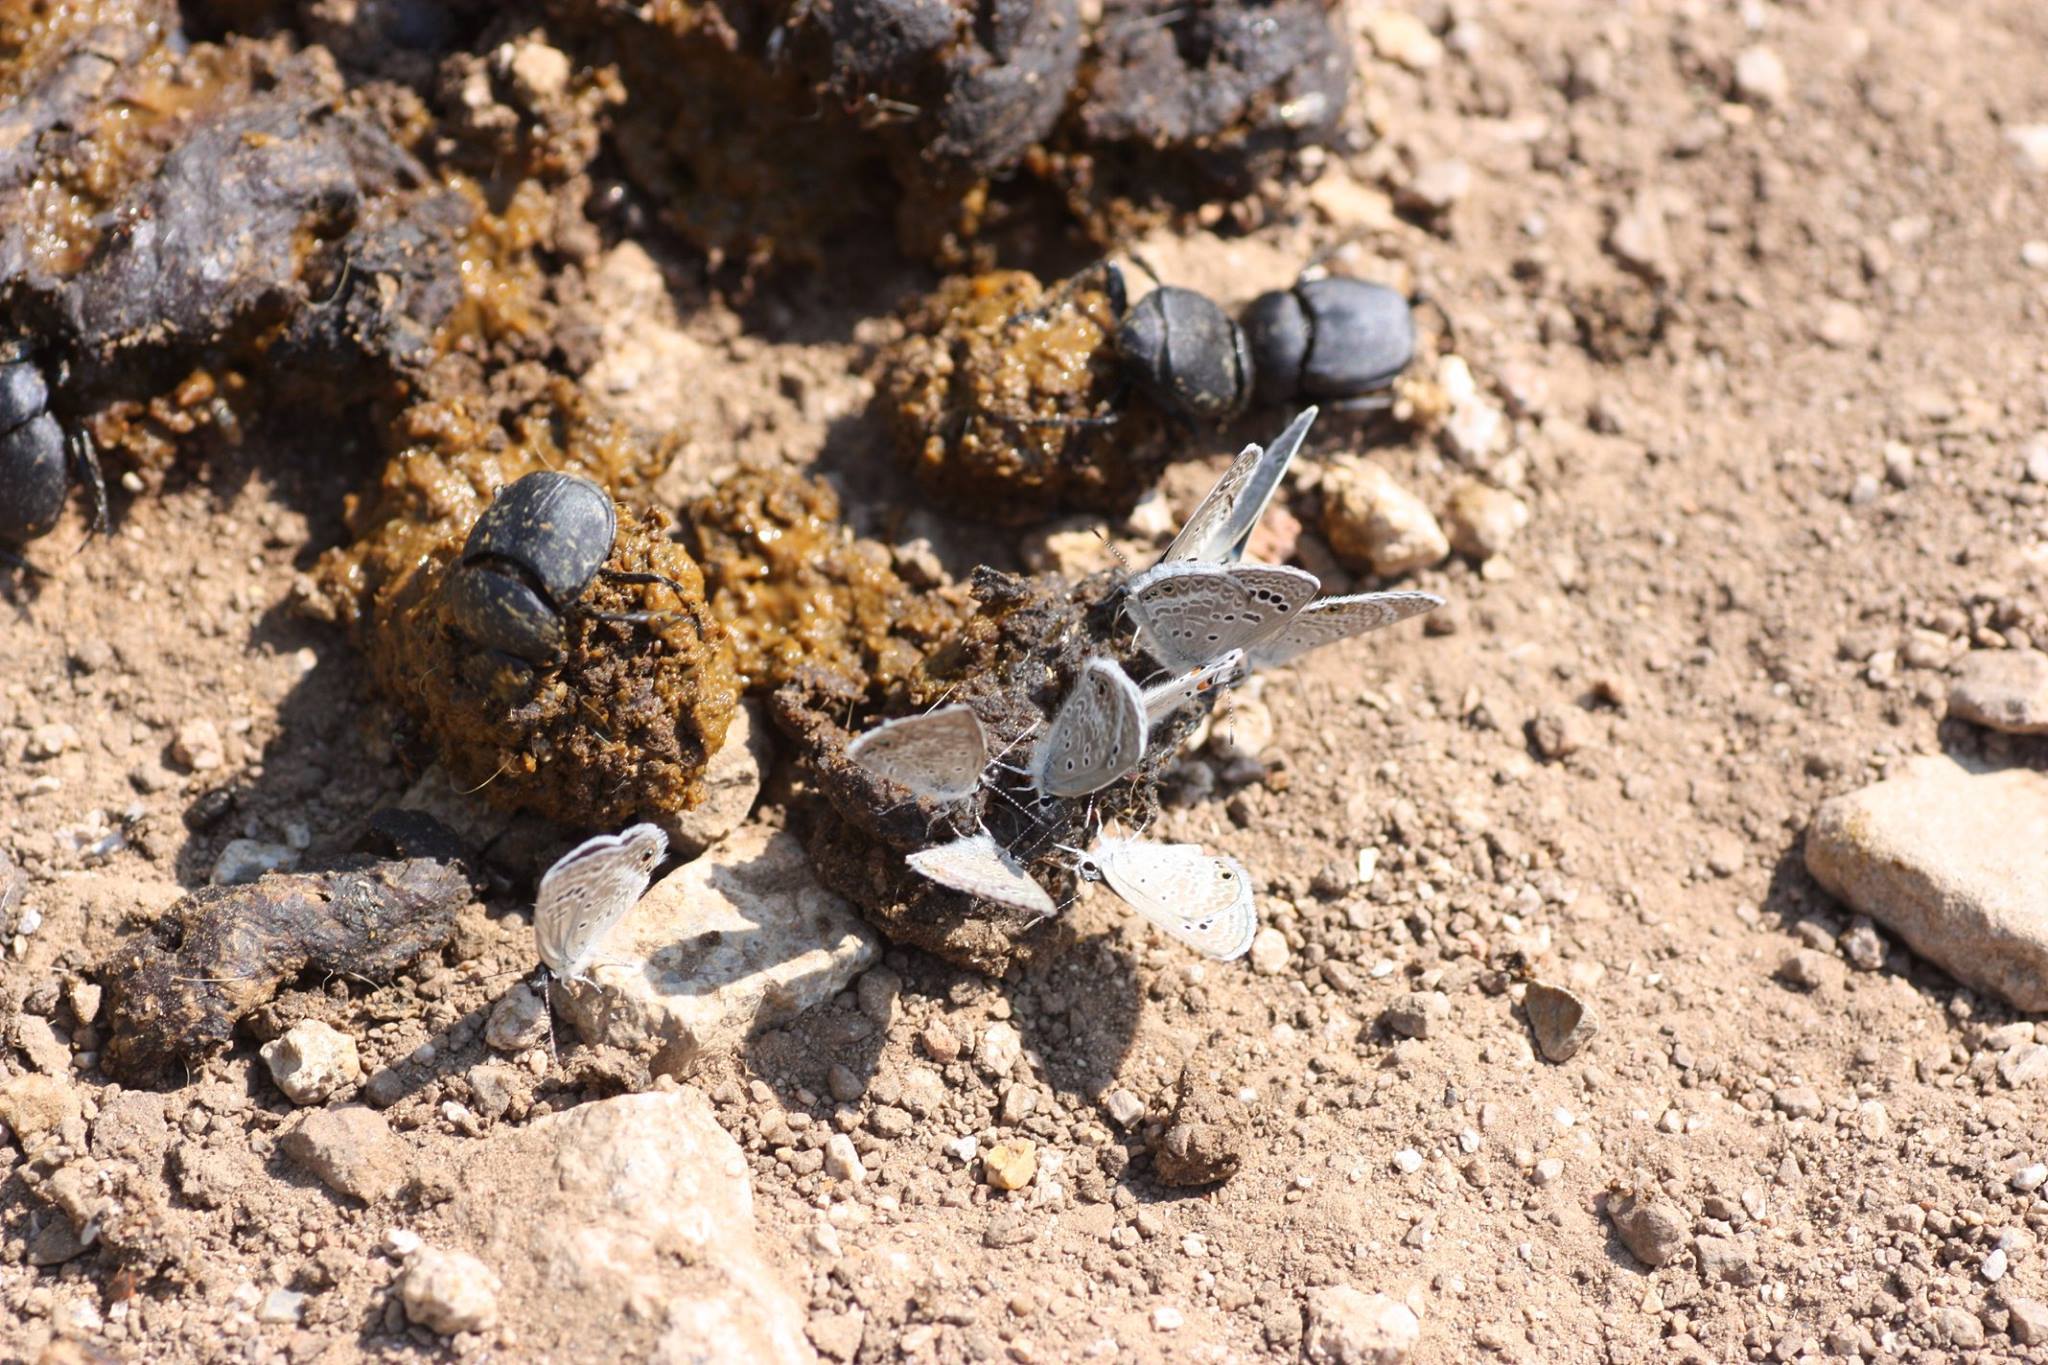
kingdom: Animalia
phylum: Arthropoda
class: Insecta
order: Lepidoptera
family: Lycaenidae
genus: Echinargus
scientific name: Echinargus isola
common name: Reakirt's blue
